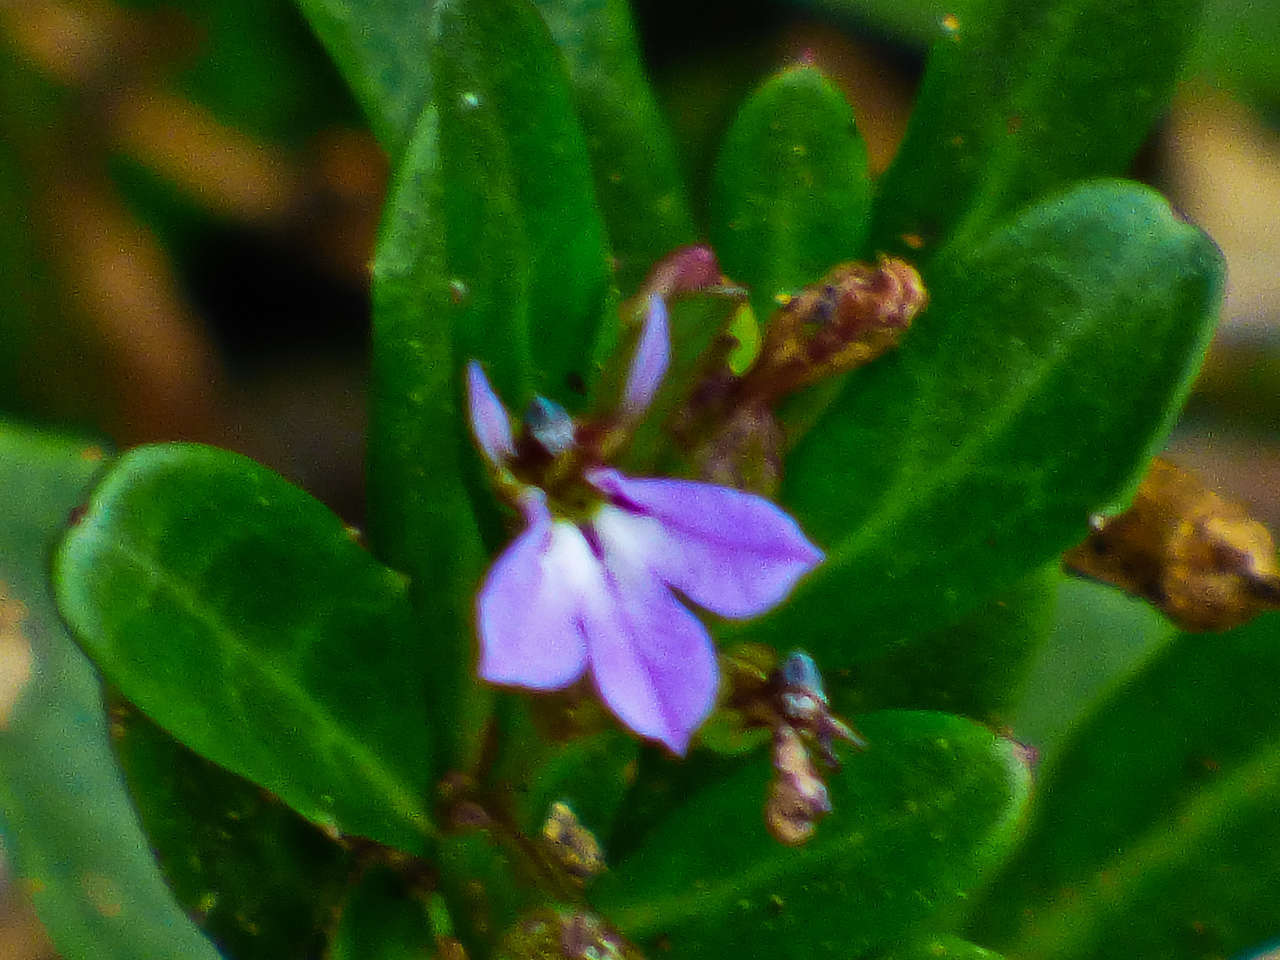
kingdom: Plantae
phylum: Tracheophyta
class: Magnoliopsida
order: Asterales
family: Campanulaceae
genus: Lobelia
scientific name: Lobelia anceps
